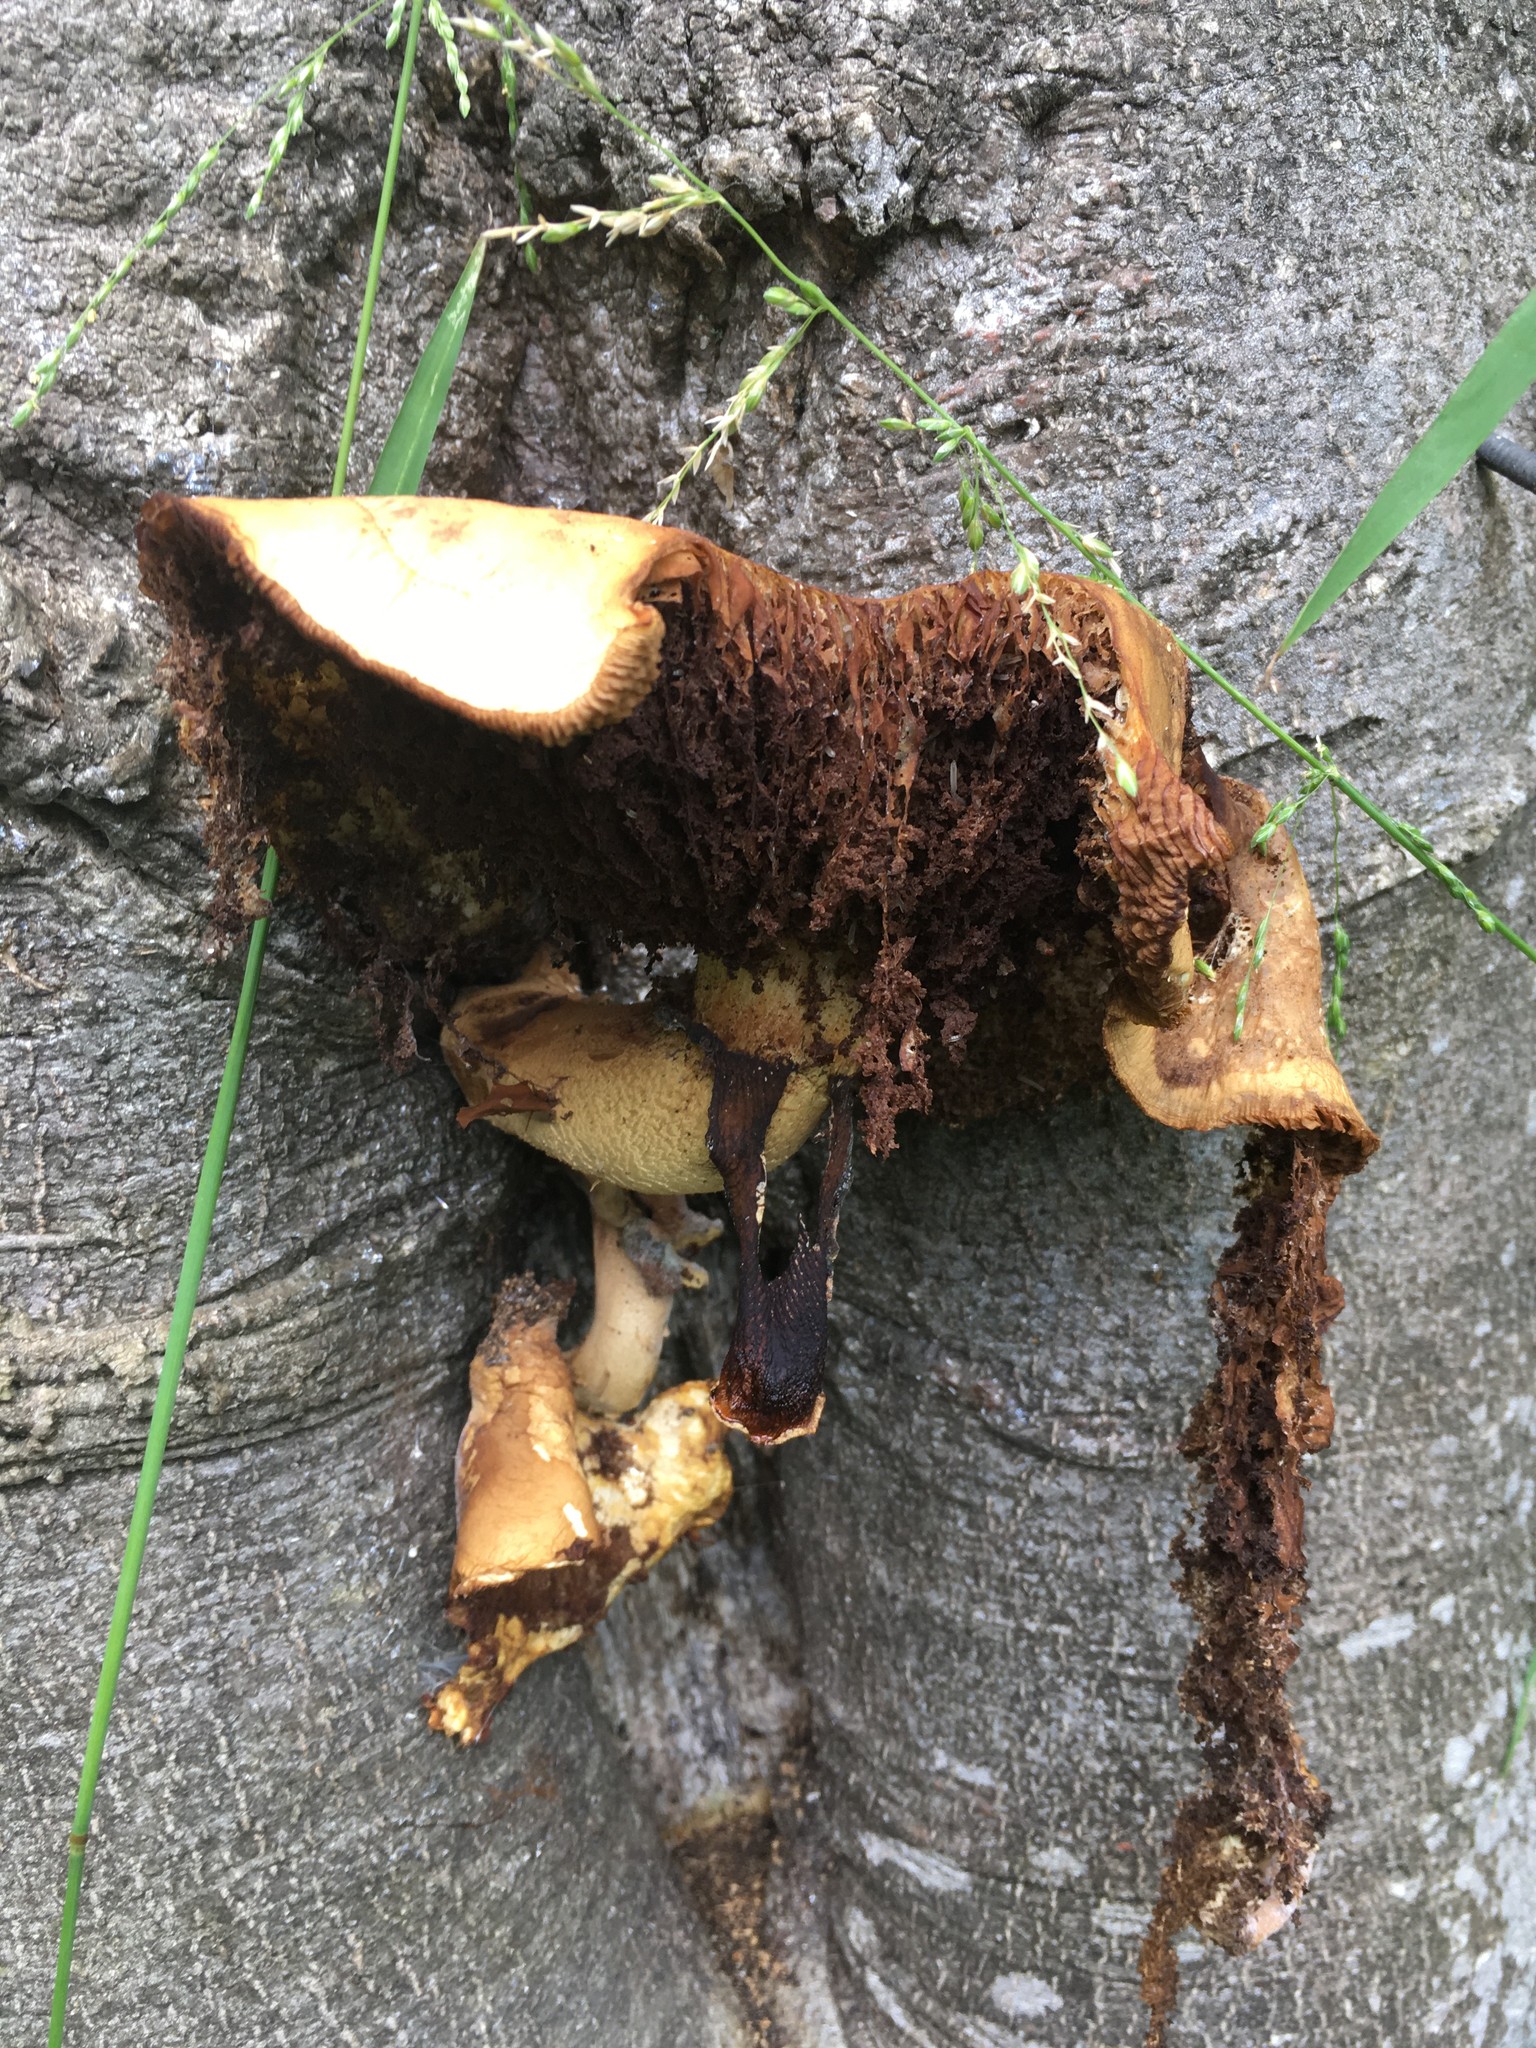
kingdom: Fungi
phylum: Basidiomycota
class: Agaricomycetes
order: Agaricales
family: Tubariaceae
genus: Cyclocybe
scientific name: Cyclocybe parasitica
